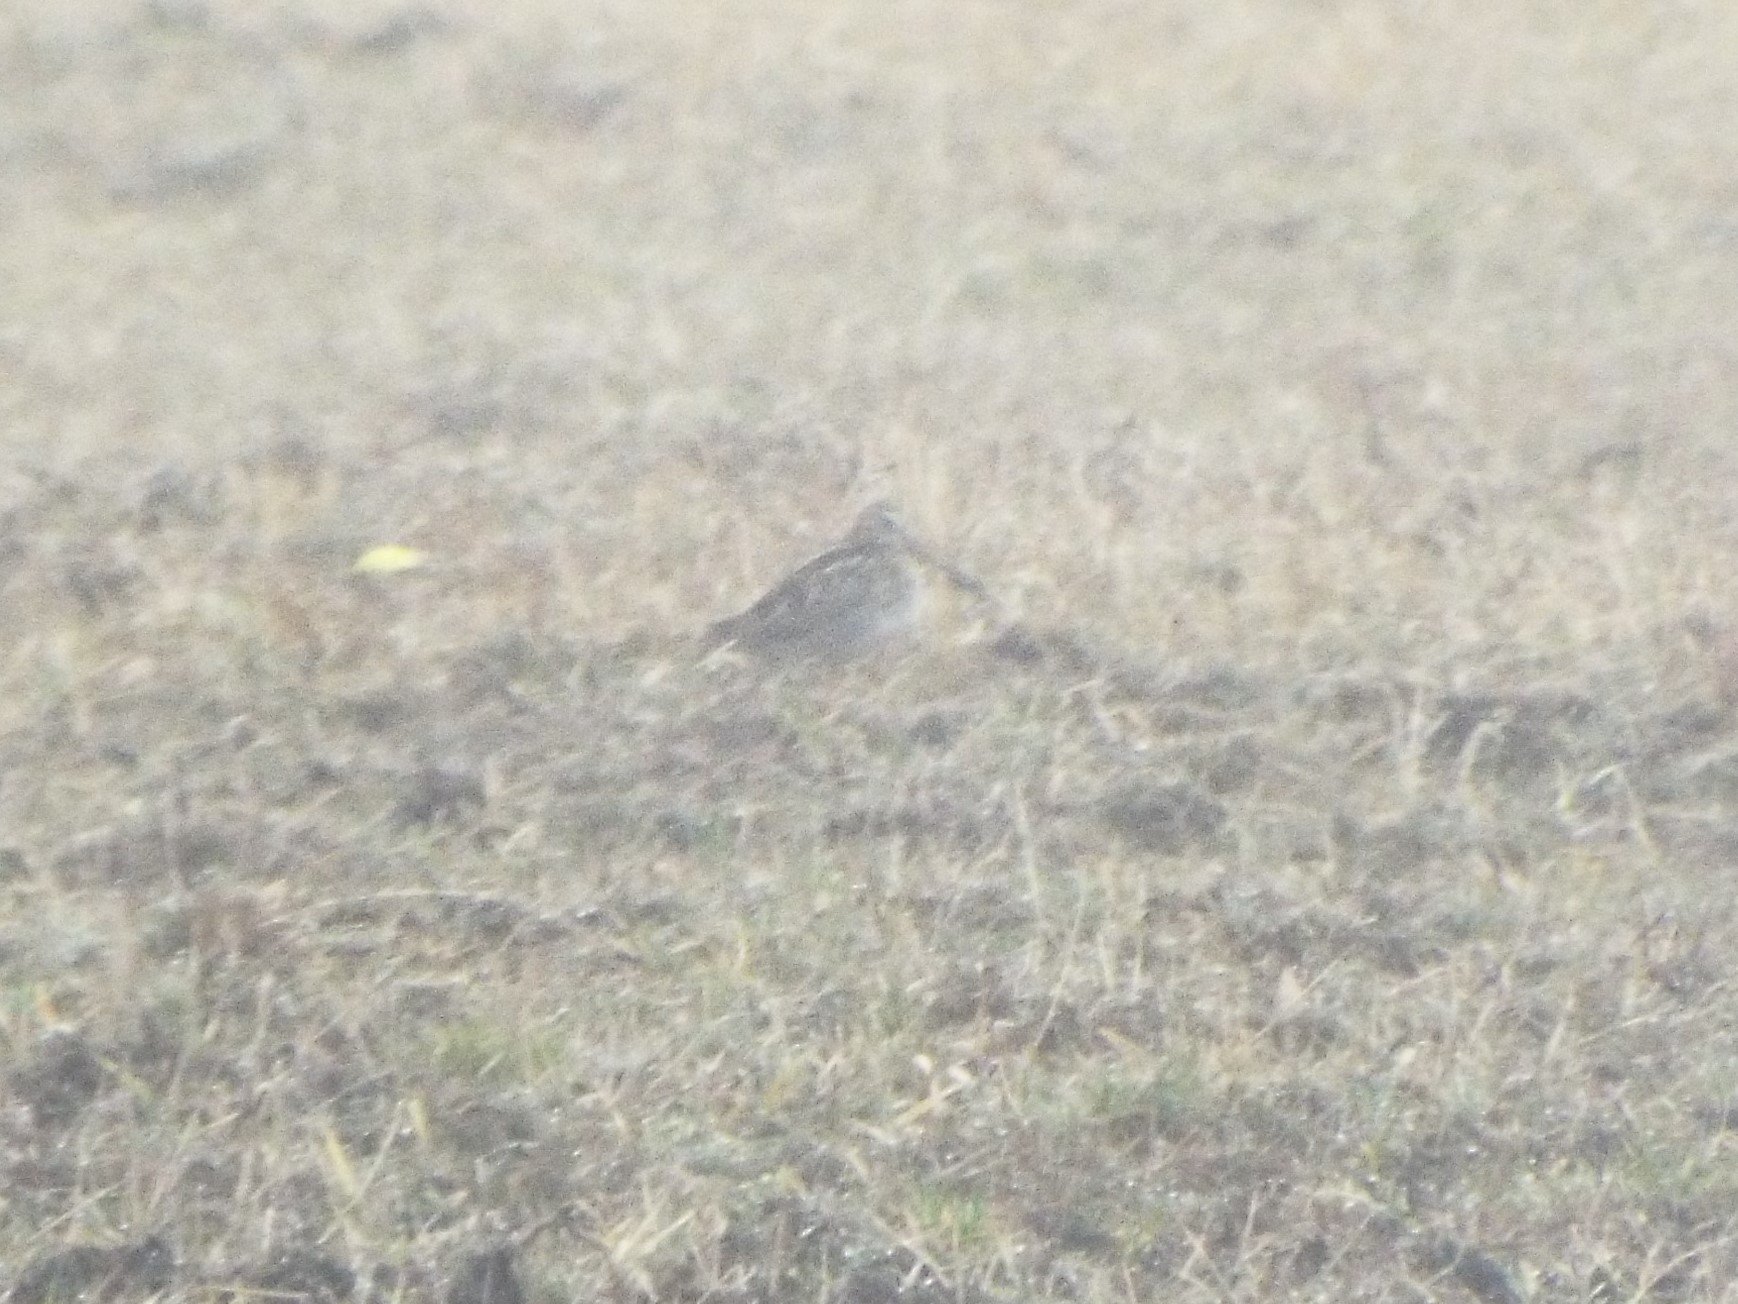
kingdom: Animalia
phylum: Chordata
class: Aves
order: Charadriiformes
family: Scolopacidae
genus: Gallinago
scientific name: Gallinago delicata
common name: Wilson's snipe
